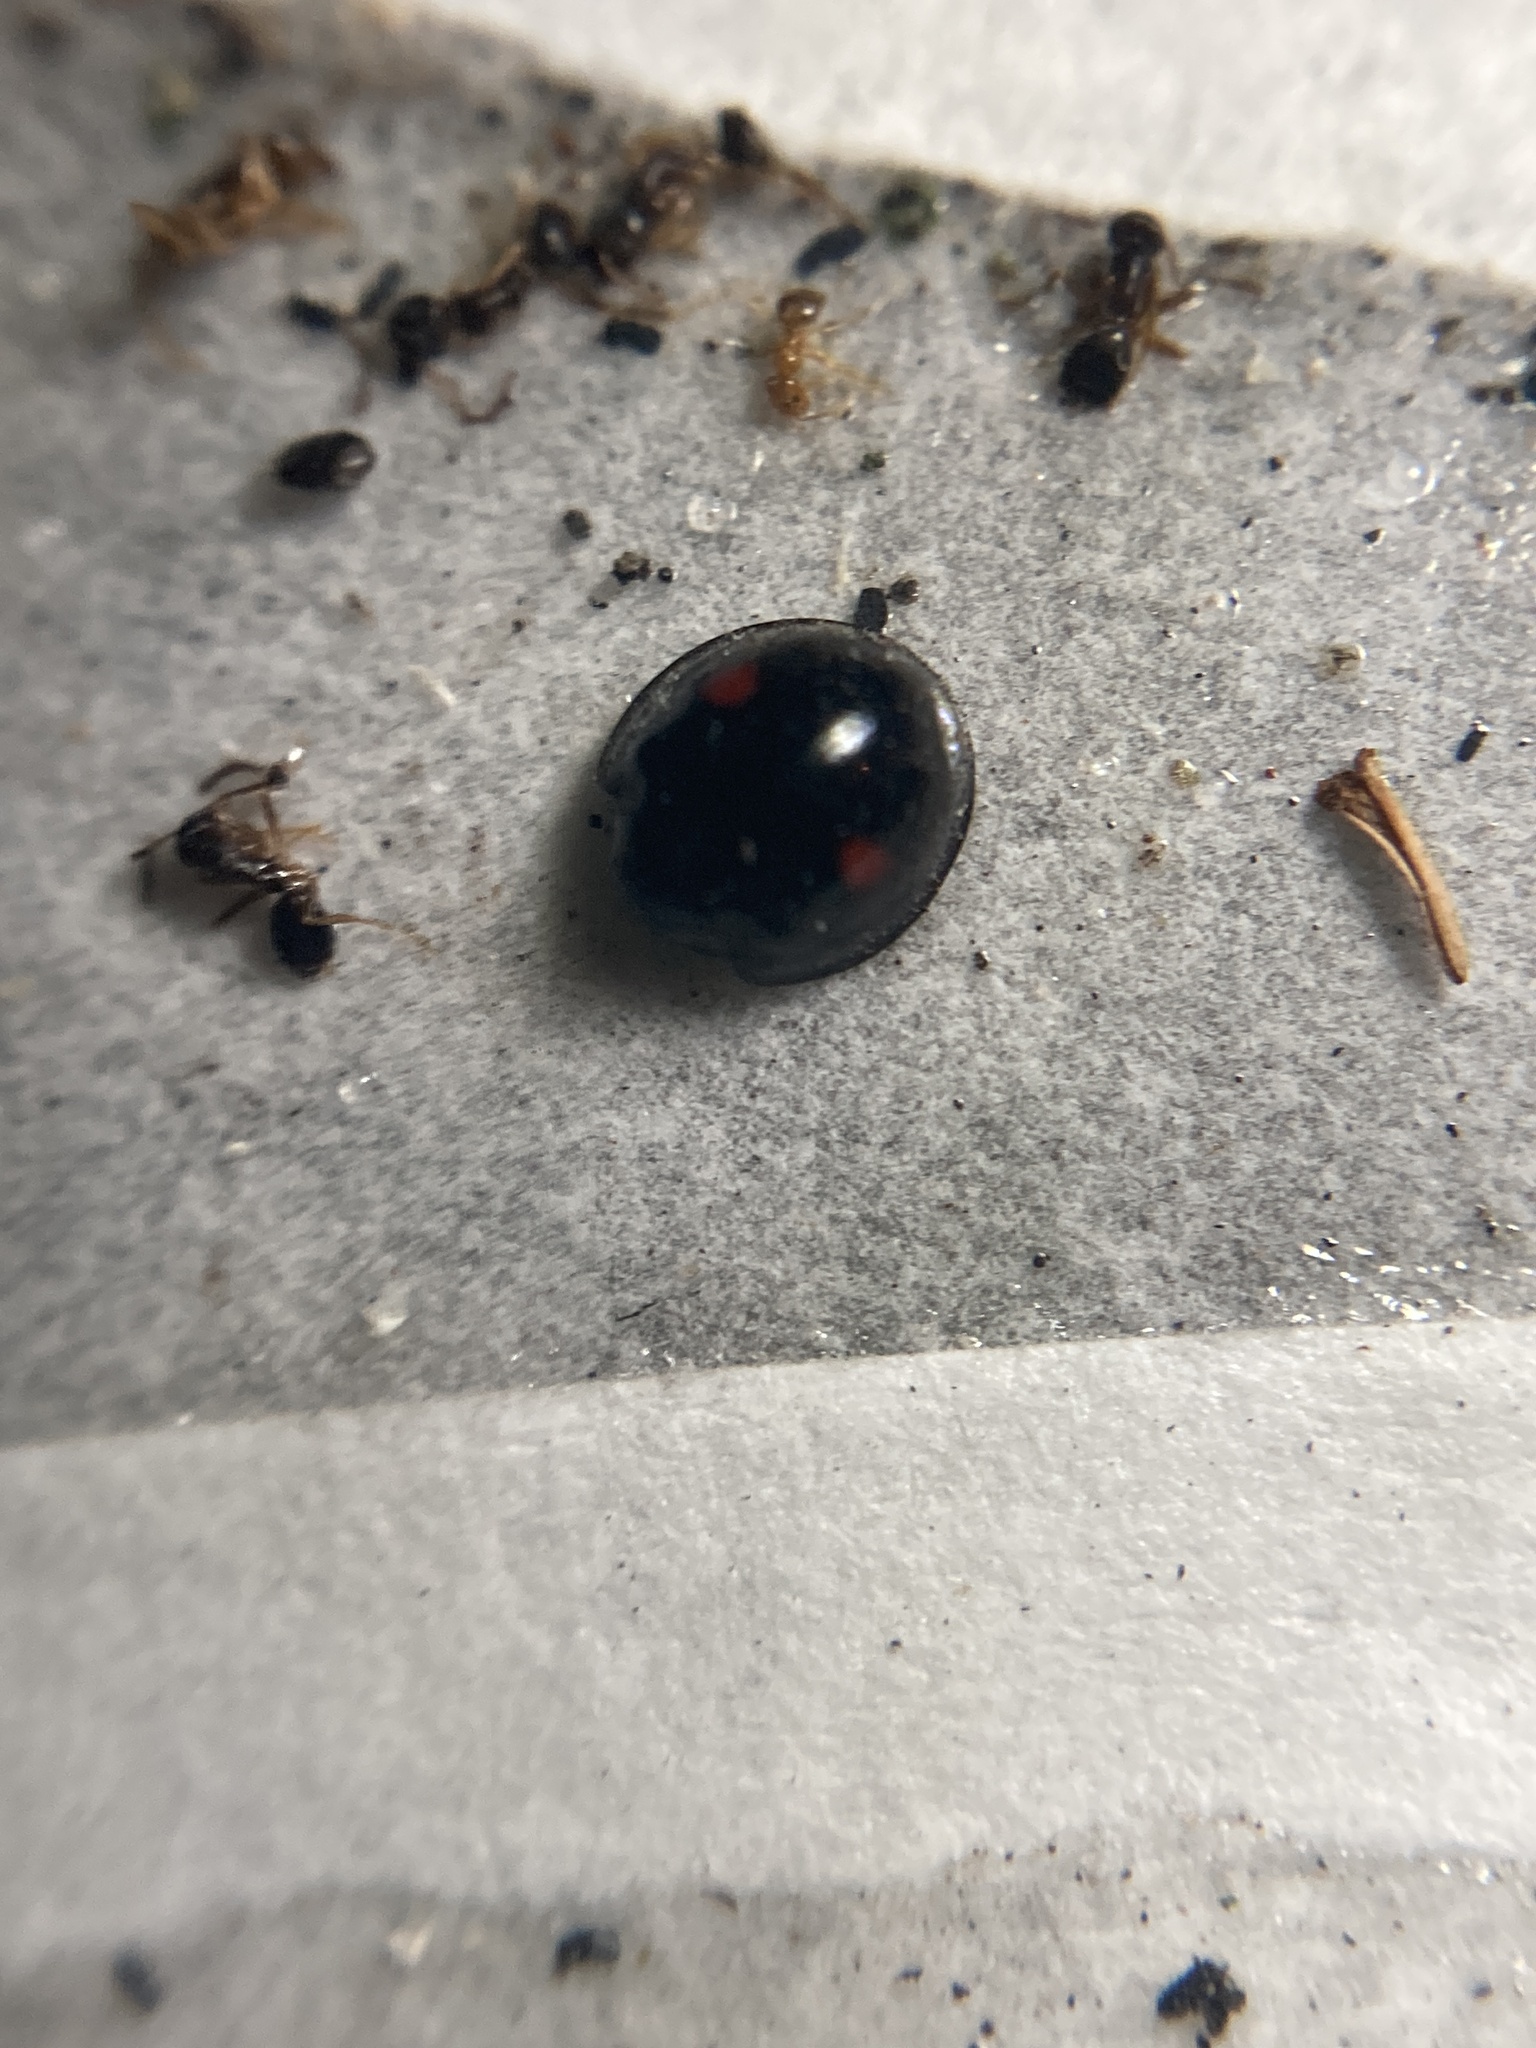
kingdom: Animalia
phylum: Arthropoda
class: Insecta
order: Coleoptera
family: Coccinellidae
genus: Chilocorus
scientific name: Chilocorus stigma
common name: Twicestabbed lady beetle
